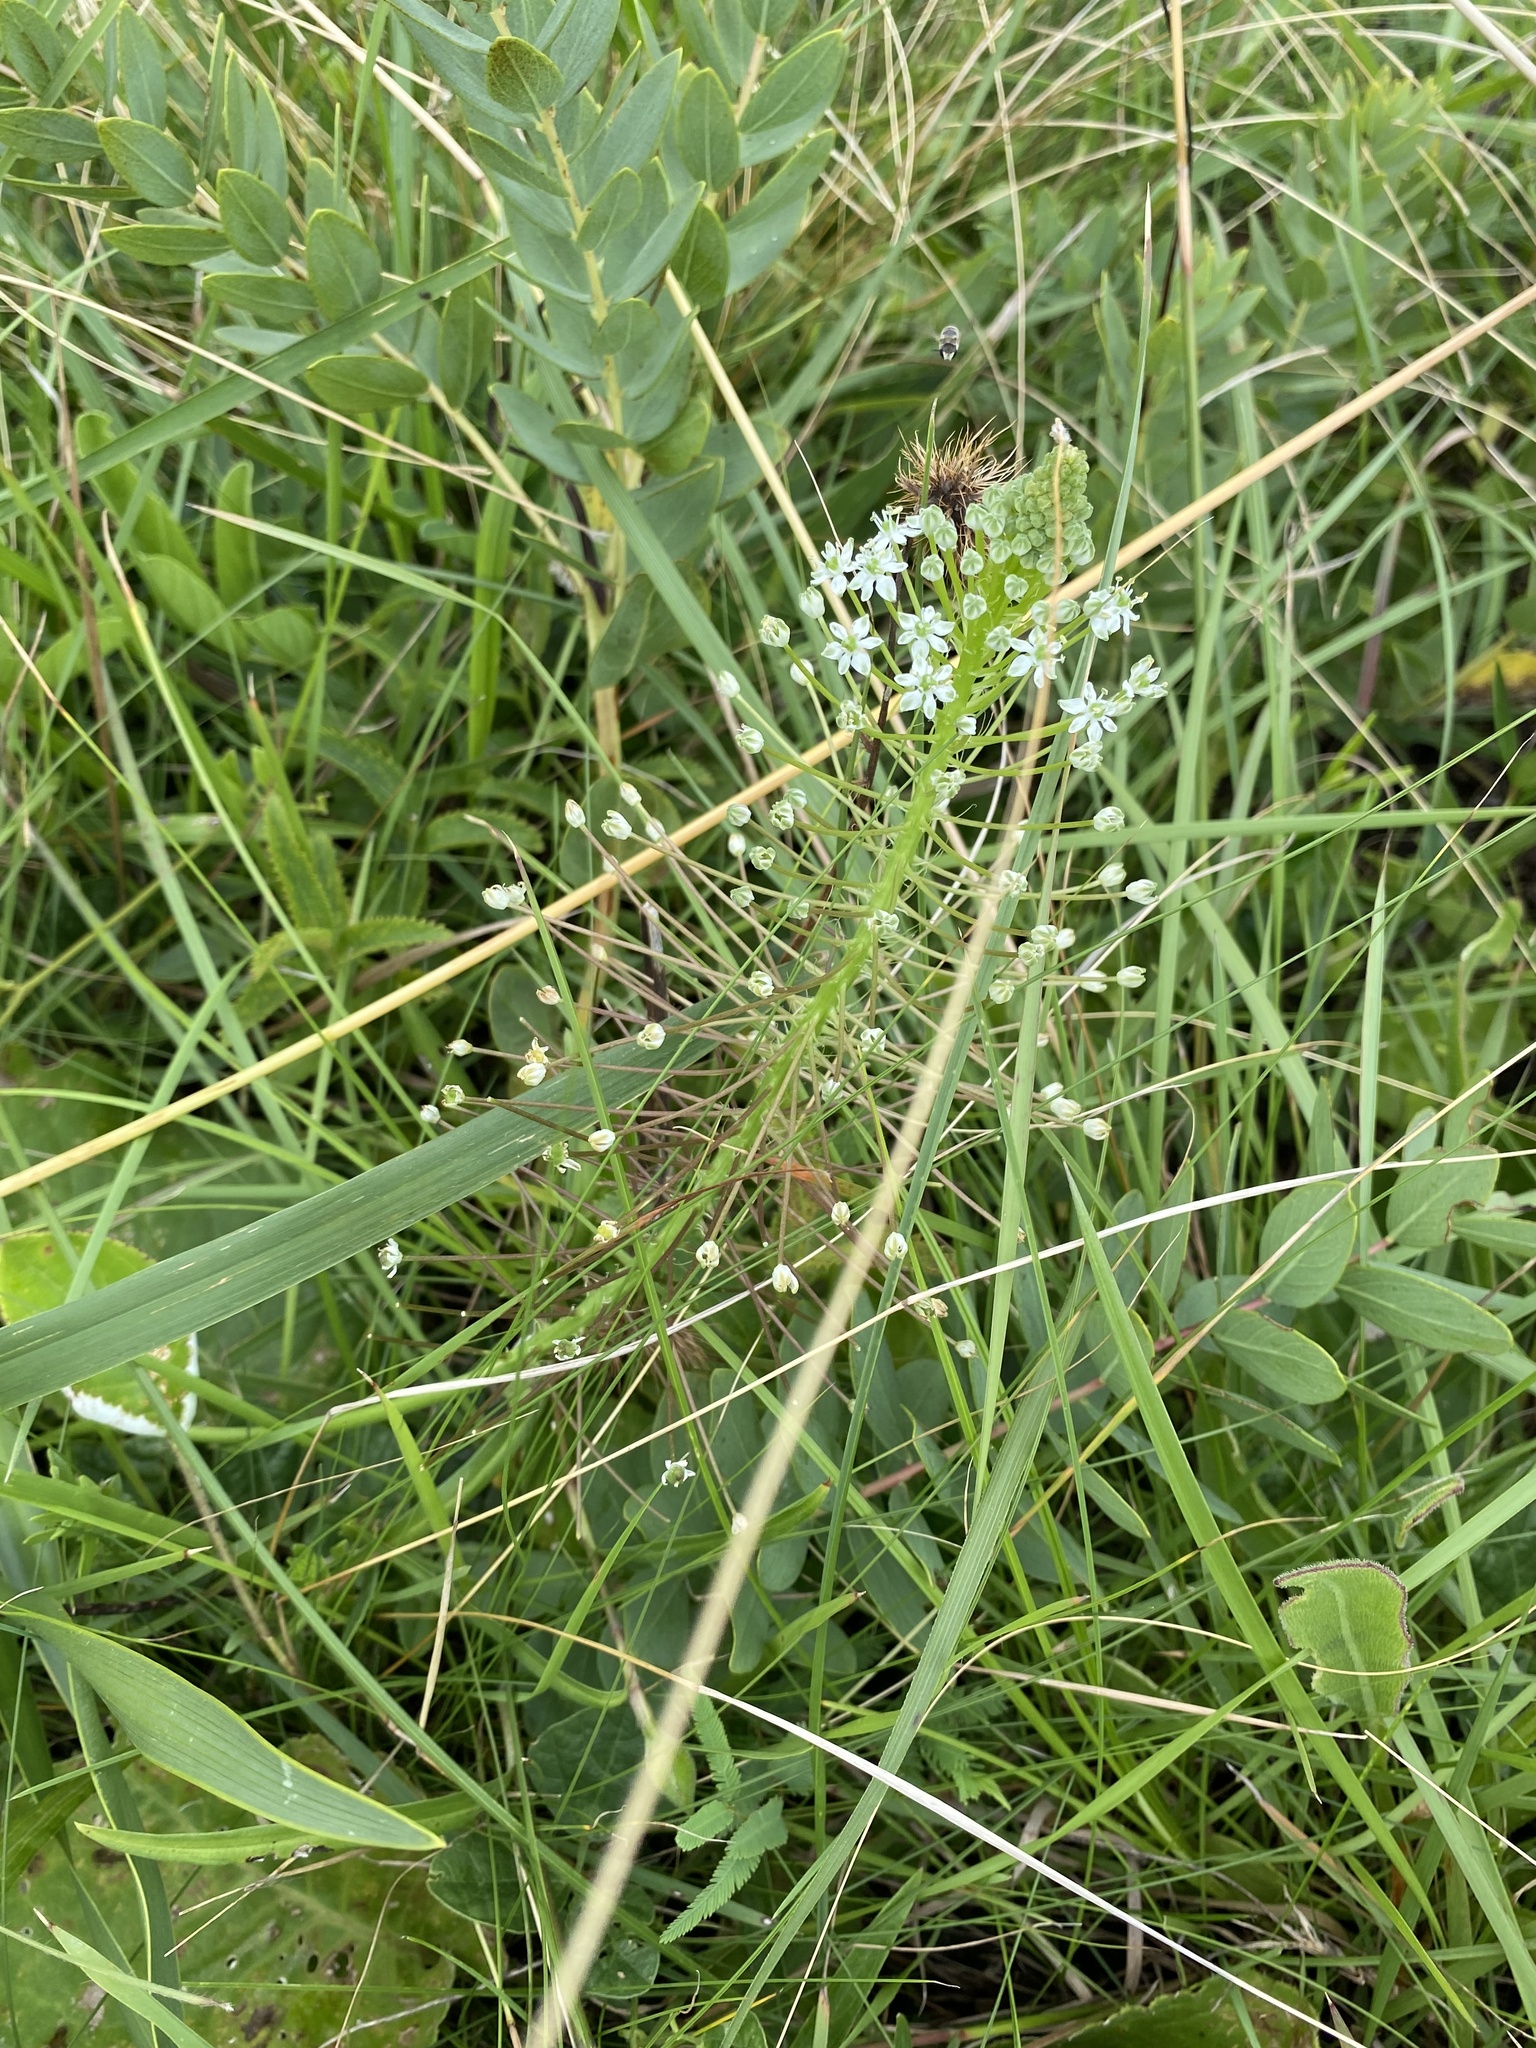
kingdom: Plantae
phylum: Tracheophyta
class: Liliopsida
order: Asparagales
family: Asparagaceae
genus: Schizocarphus
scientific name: Schizocarphus nervosus
